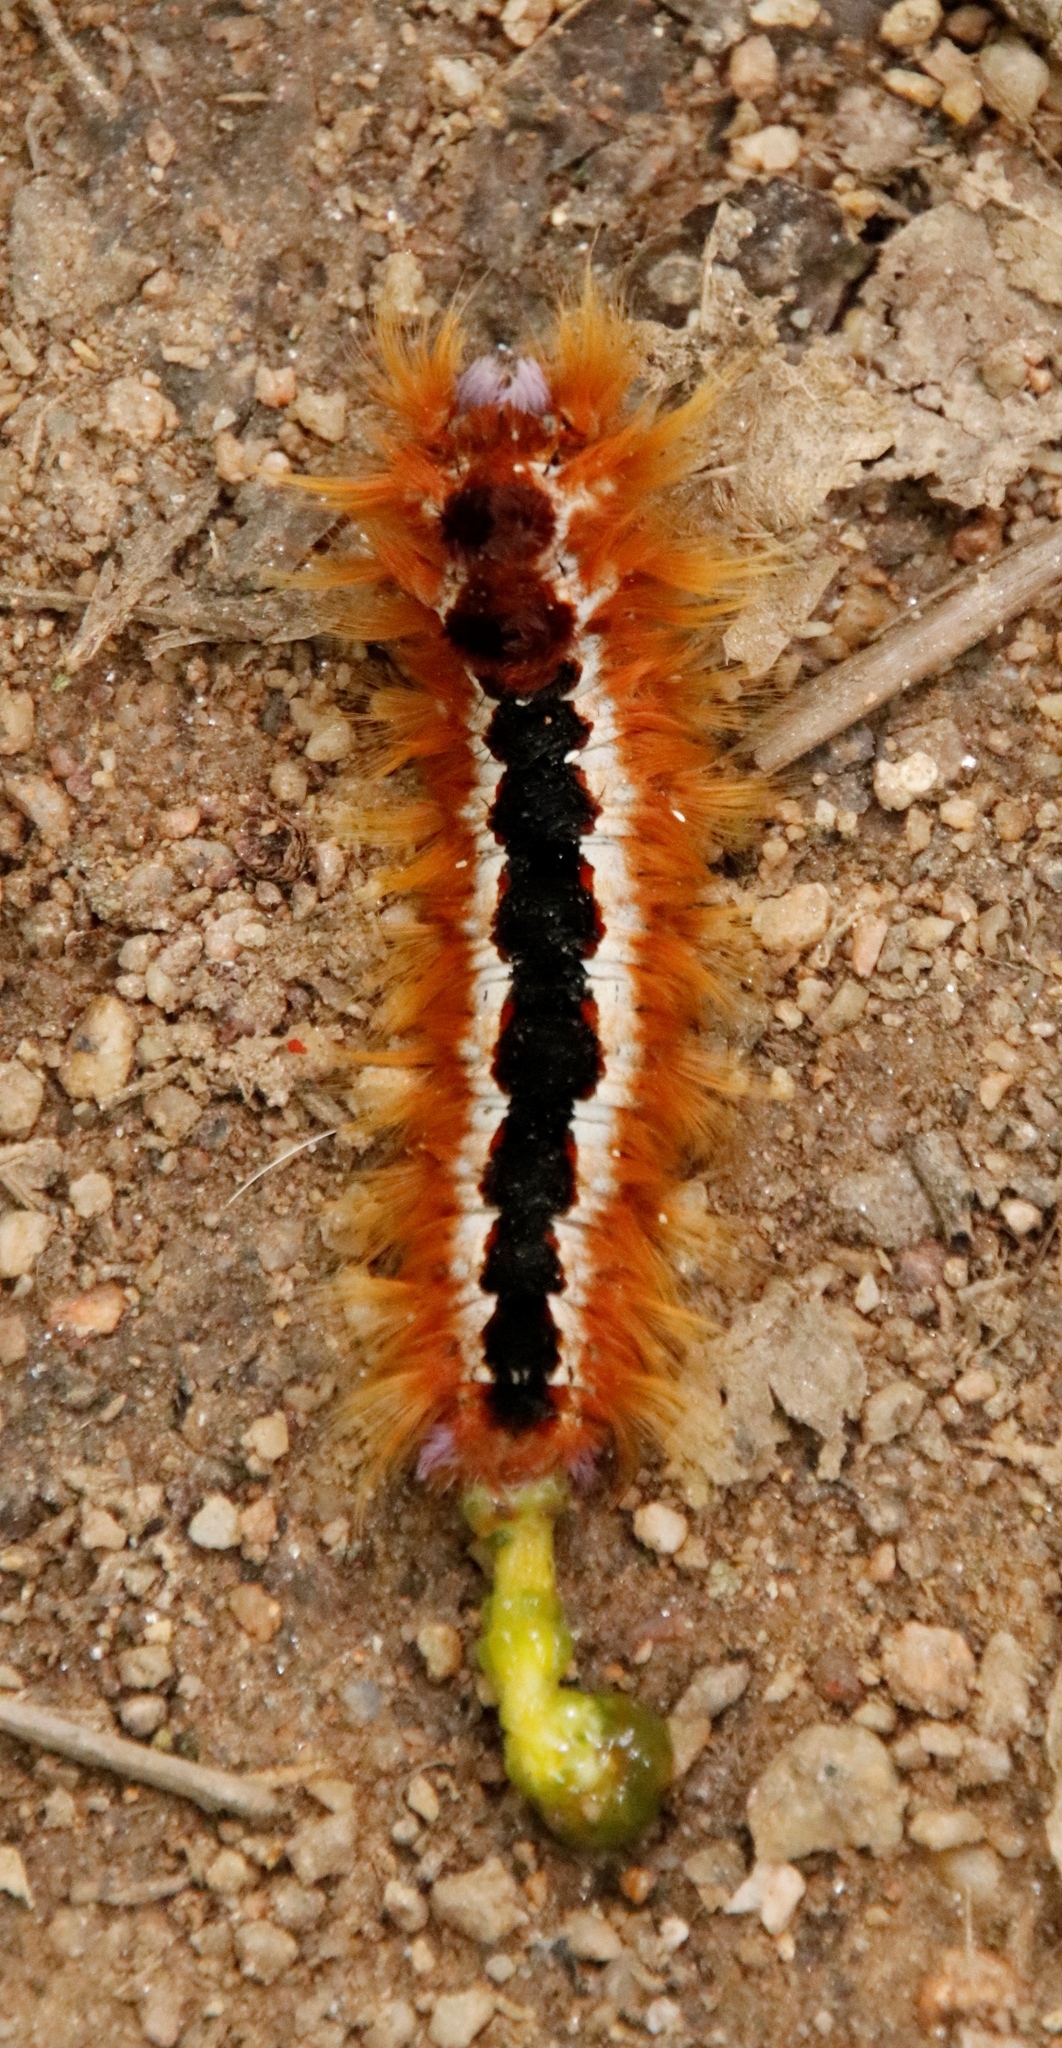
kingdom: Animalia
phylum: Arthropoda
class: Insecta
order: Lepidoptera
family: Lasiocampidae
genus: Eutricha
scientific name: Eutricha capensis
